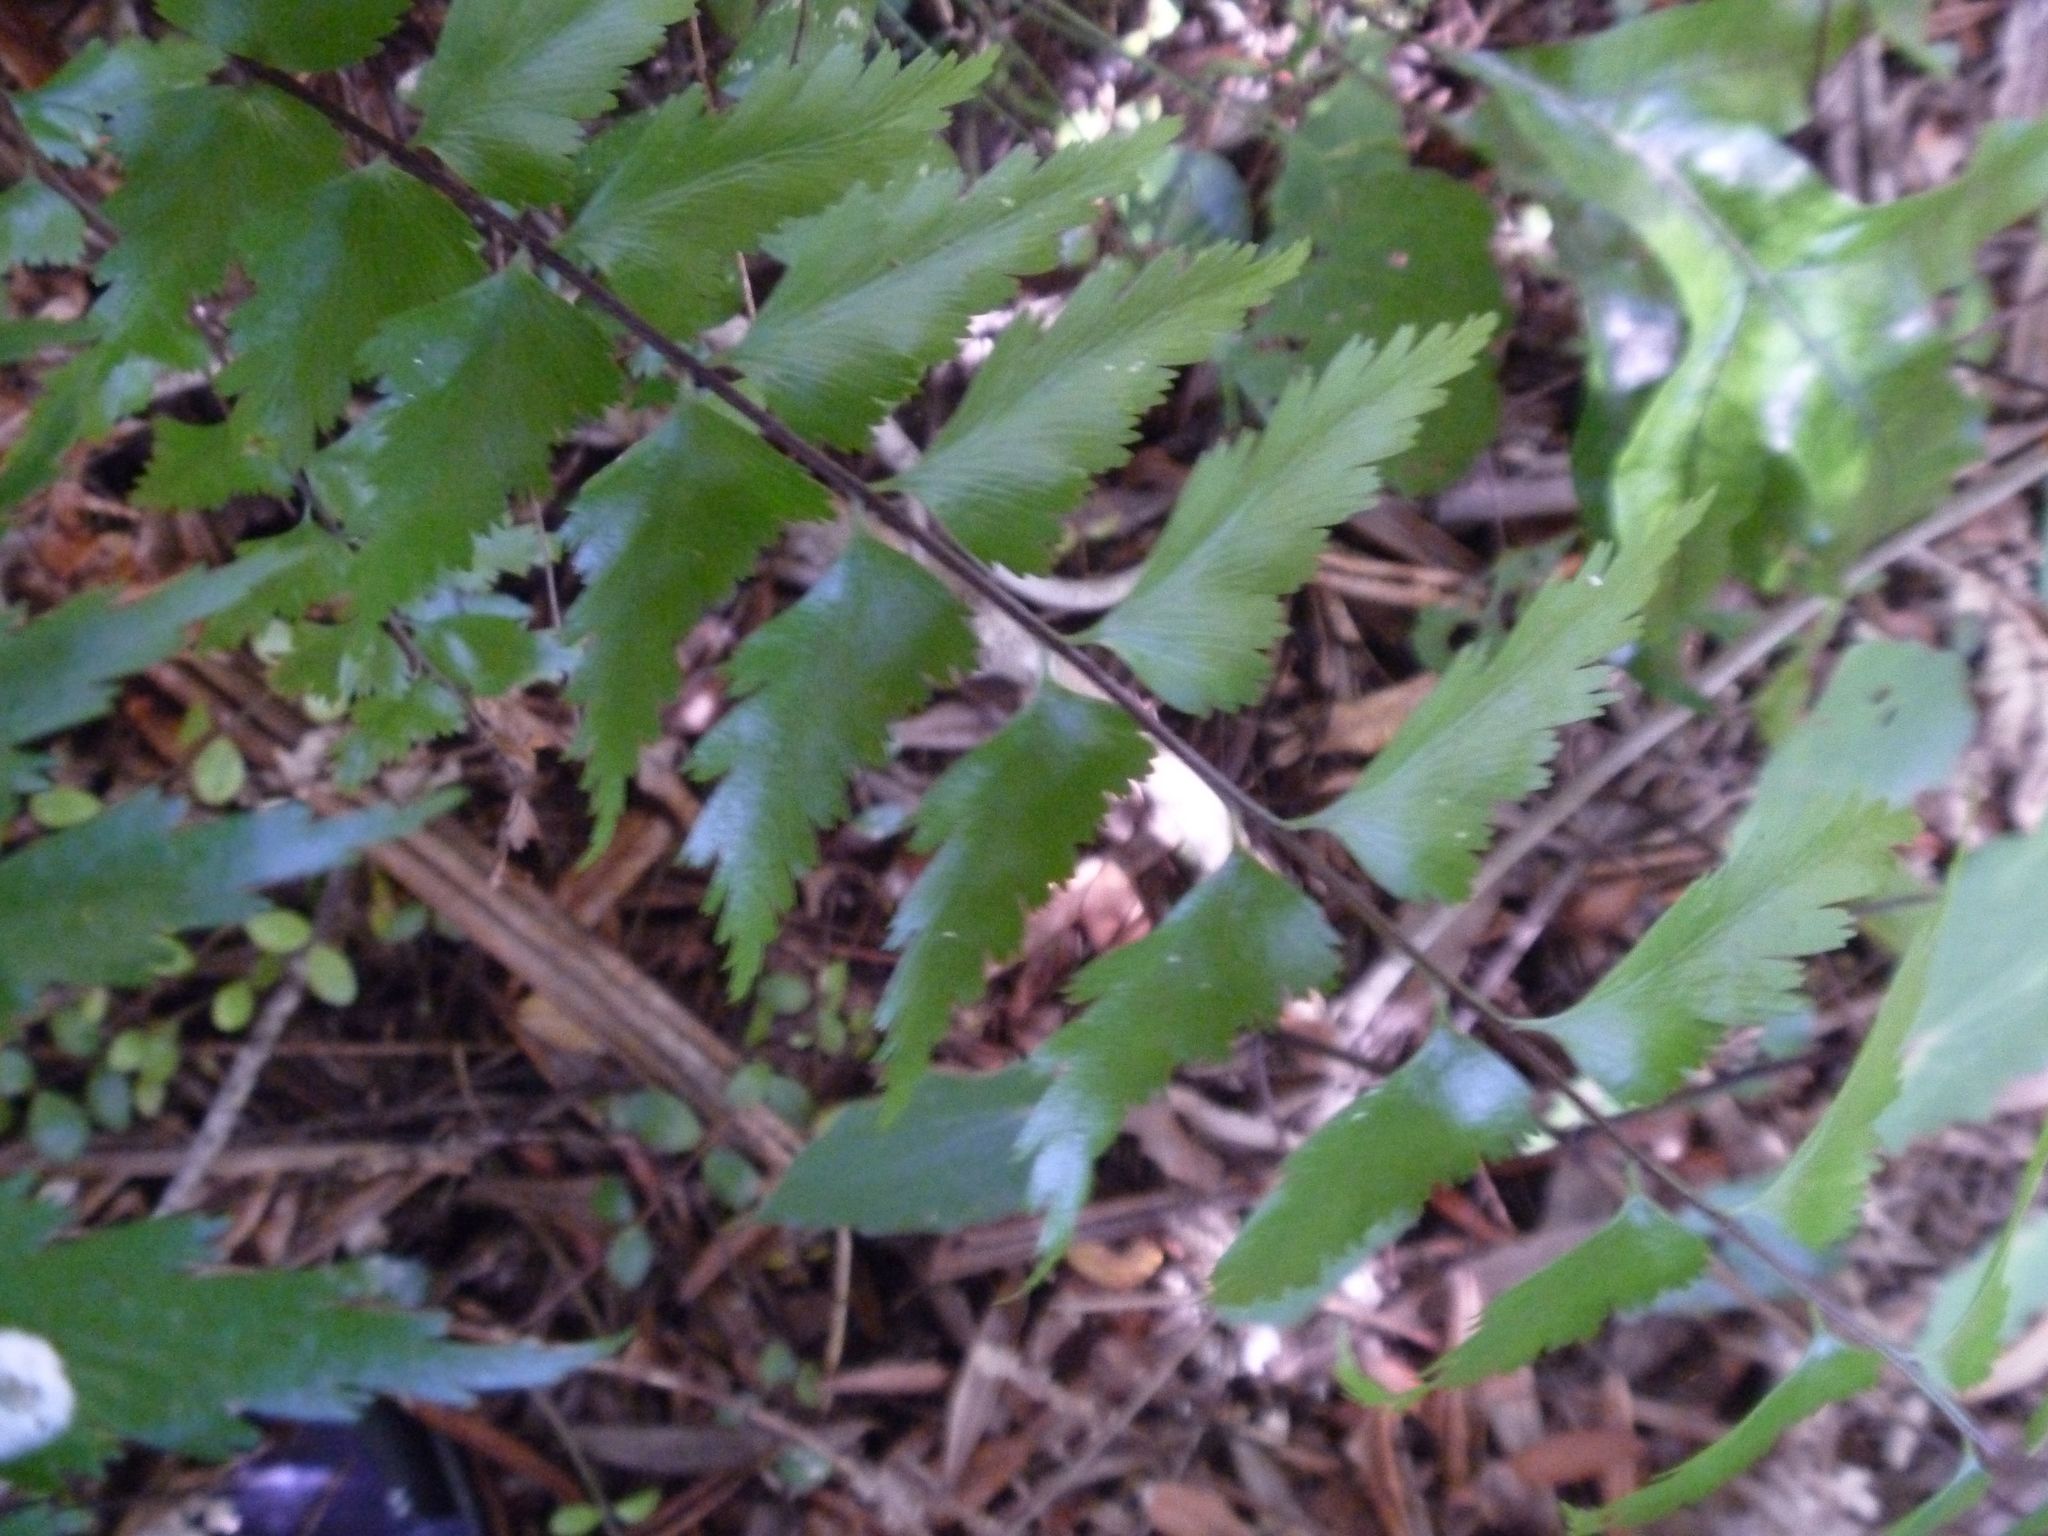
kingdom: Plantae
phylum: Tracheophyta
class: Polypodiopsida
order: Polypodiales
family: Aspleniaceae
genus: Asplenium
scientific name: Asplenium polyodon
